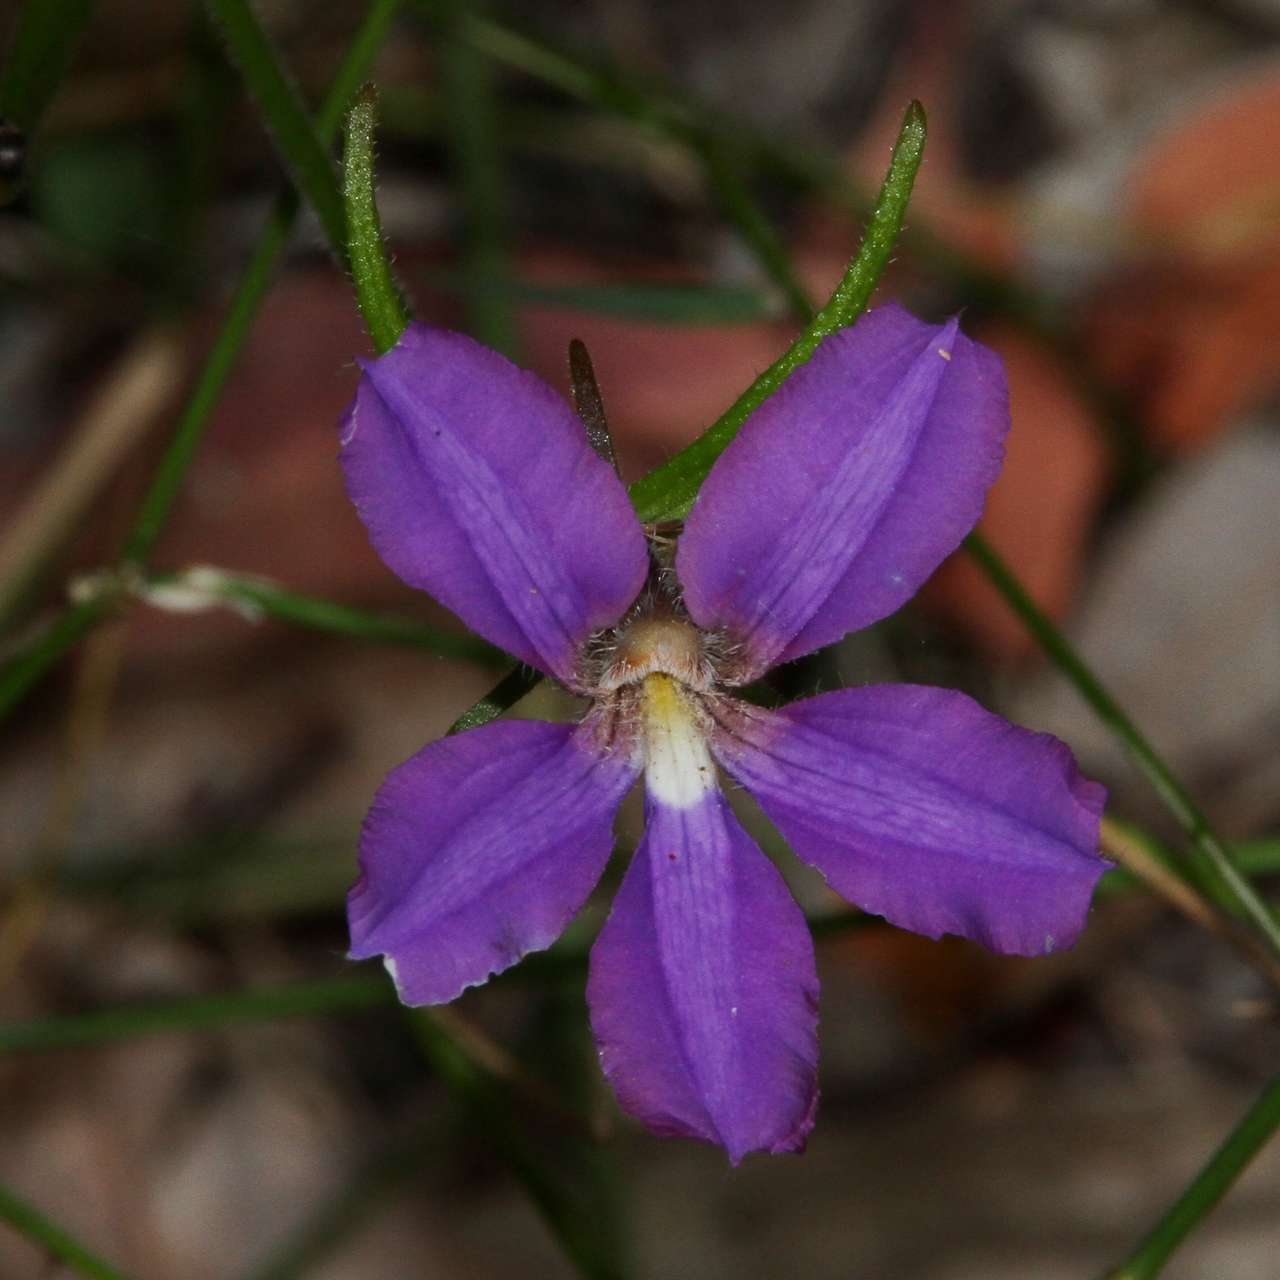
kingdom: Plantae
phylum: Tracheophyta
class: Magnoliopsida
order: Asterales
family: Goodeniaceae
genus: Scaevola
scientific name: Scaevola ramosissima
